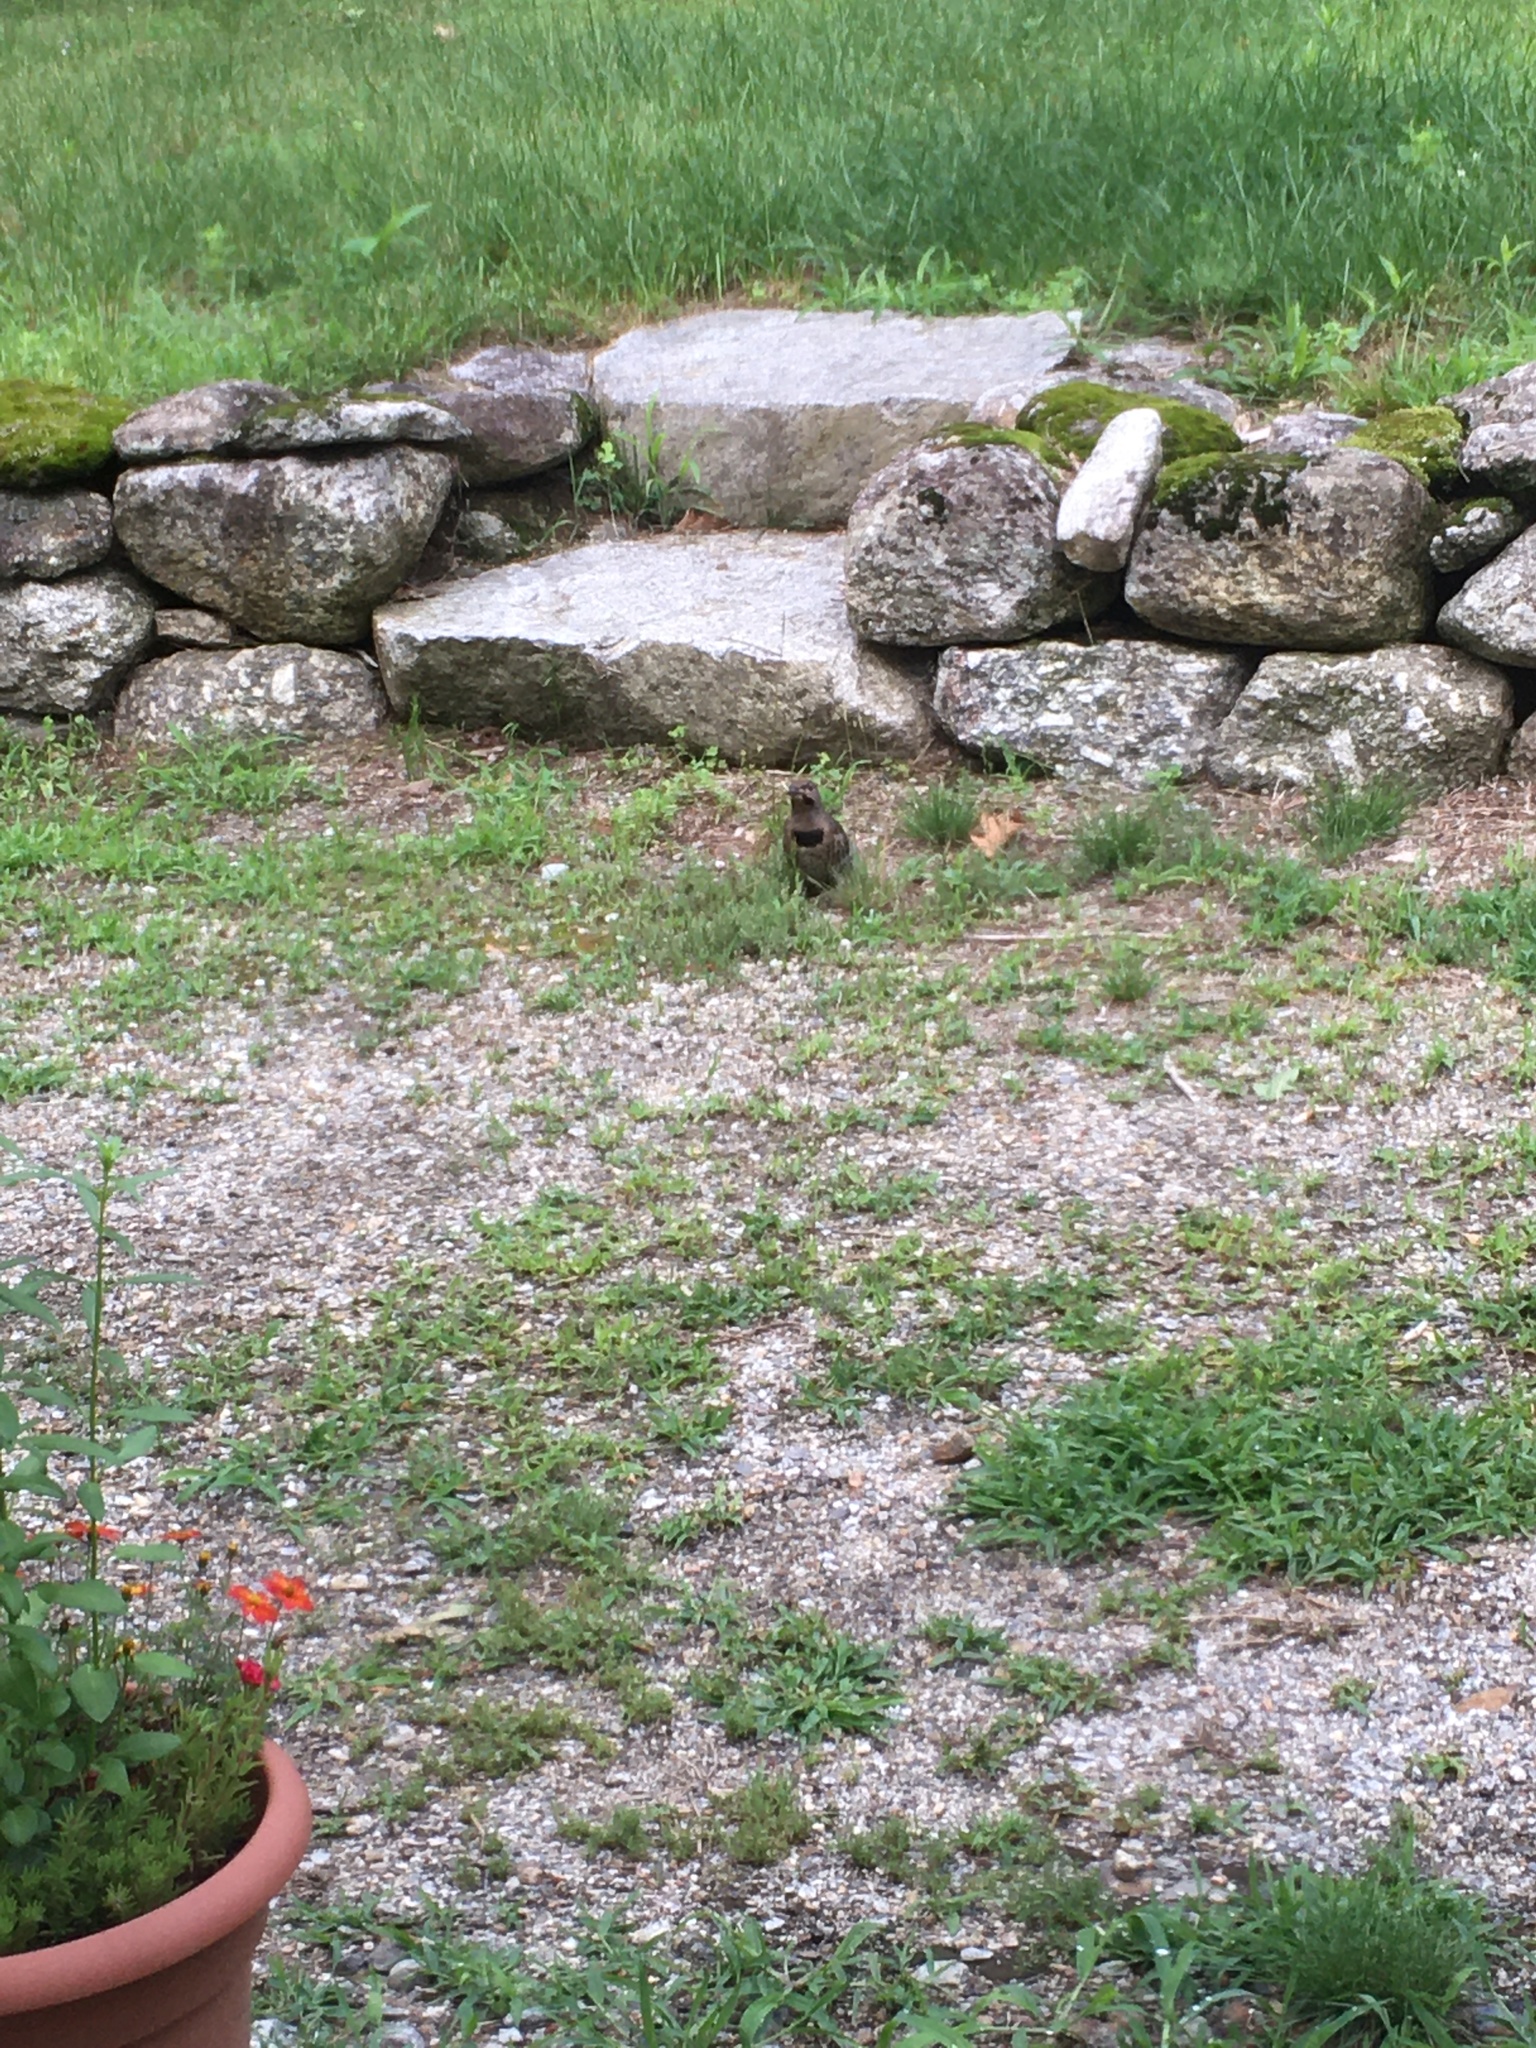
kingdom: Animalia
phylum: Chordata
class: Aves
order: Piciformes
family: Picidae
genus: Colaptes
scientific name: Colaptes auratus
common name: Northern flicker
